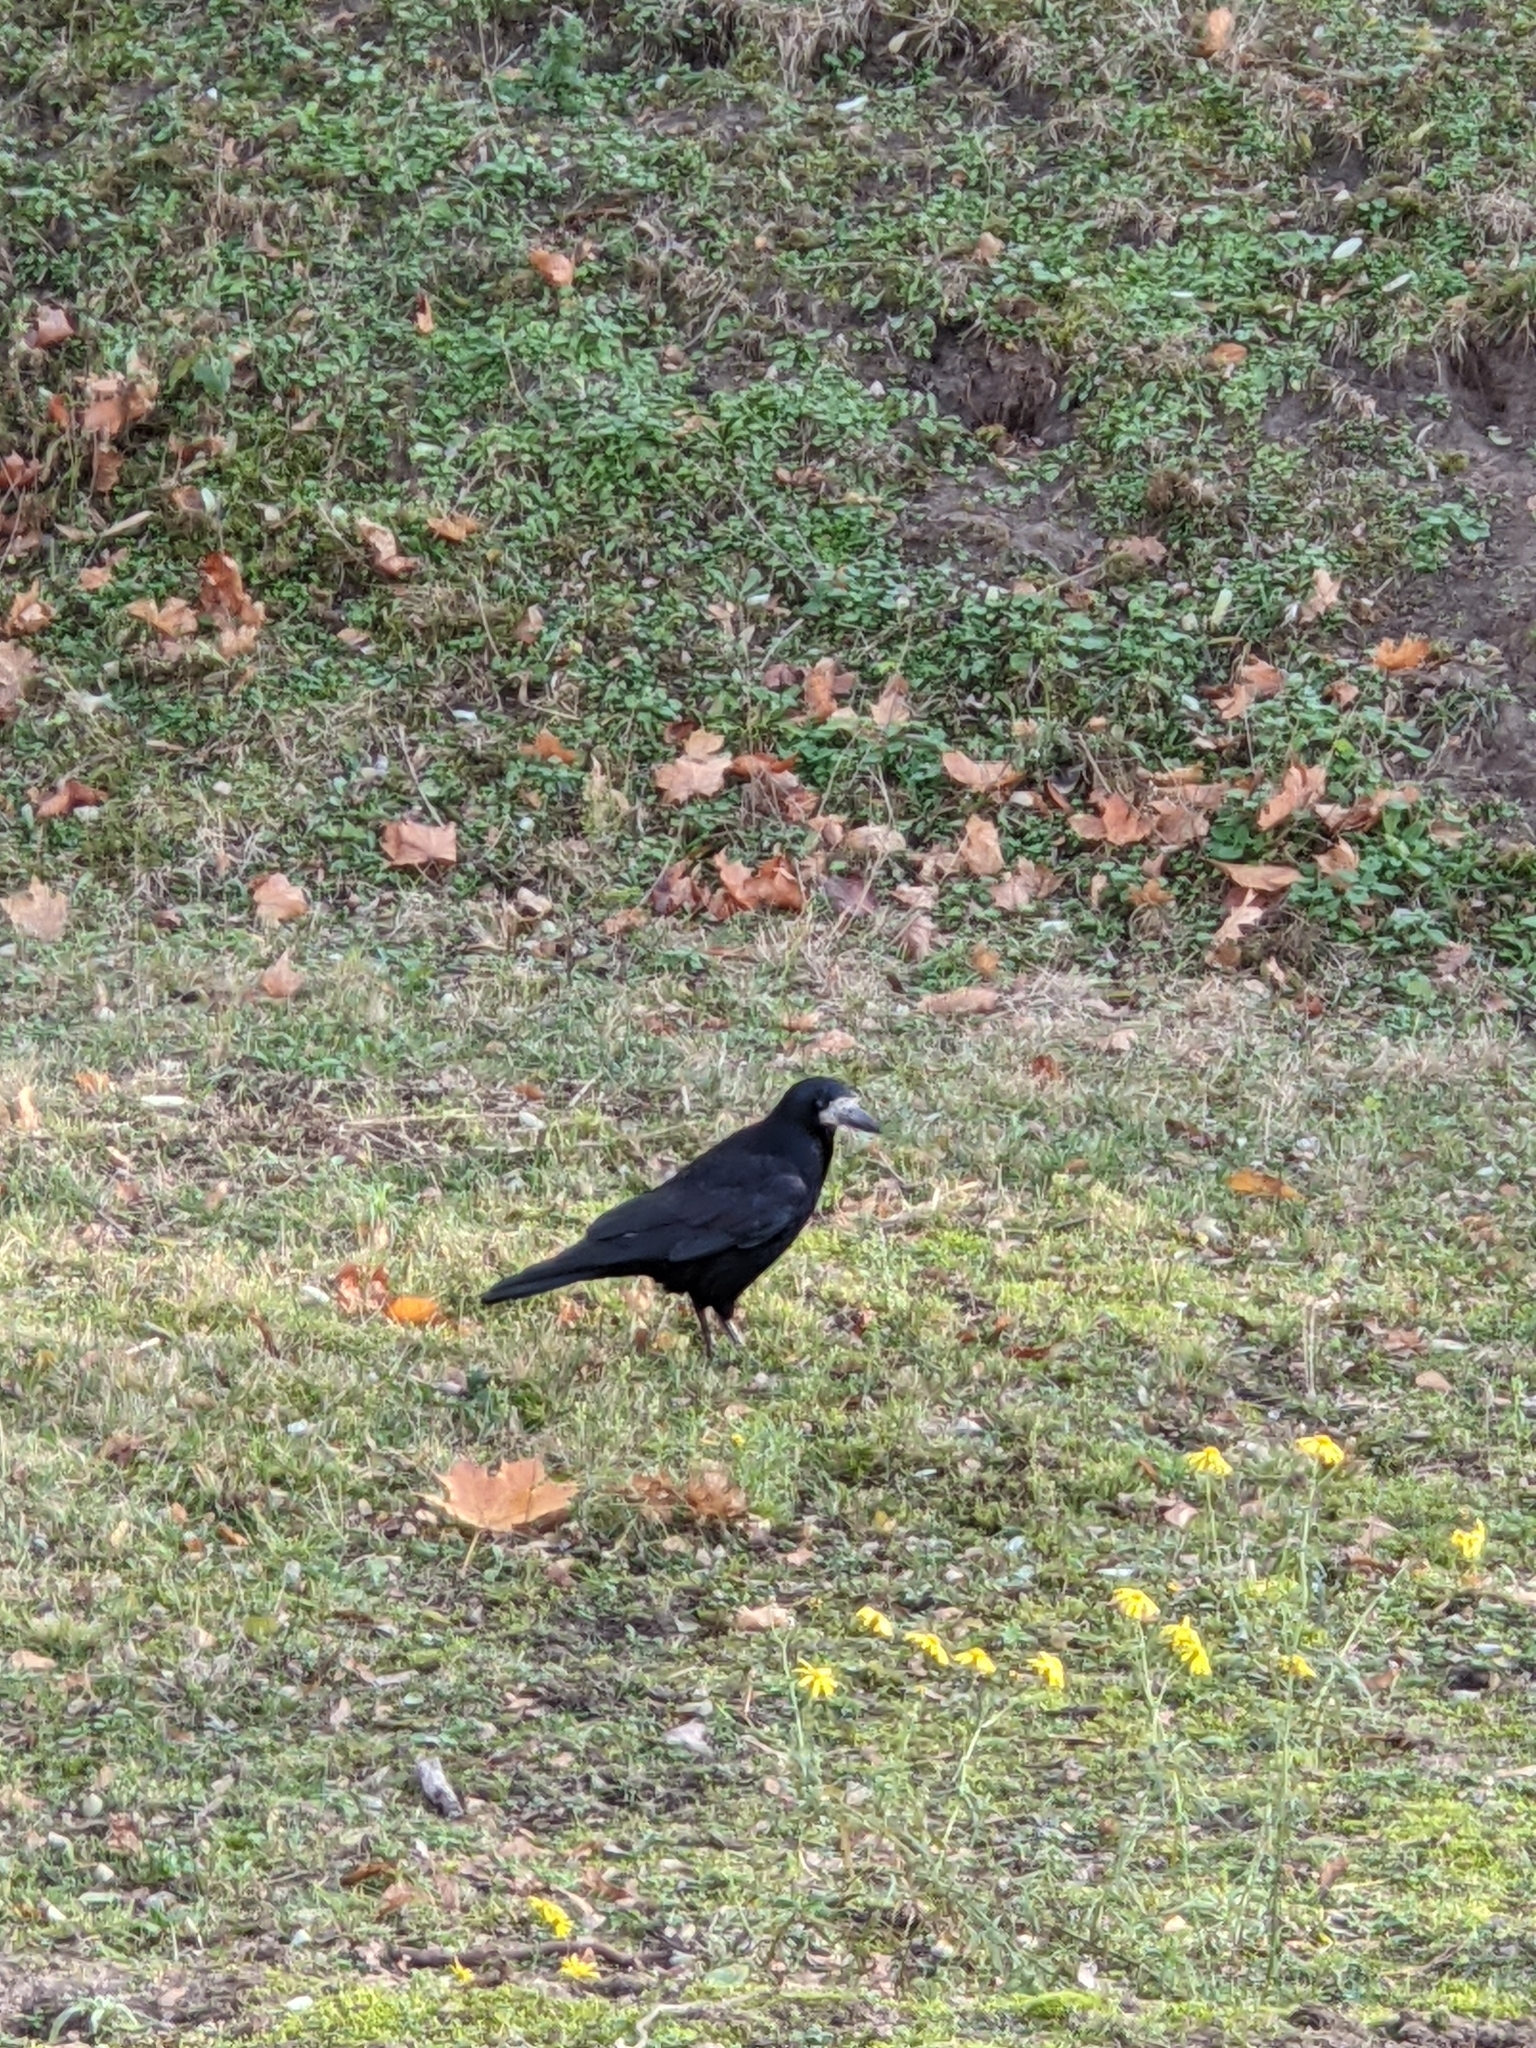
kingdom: Animalia
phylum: Chordata
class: Aves
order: Passeriformes
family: Corvidae
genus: Corvus
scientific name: Corvus frugilegus
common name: Rook
